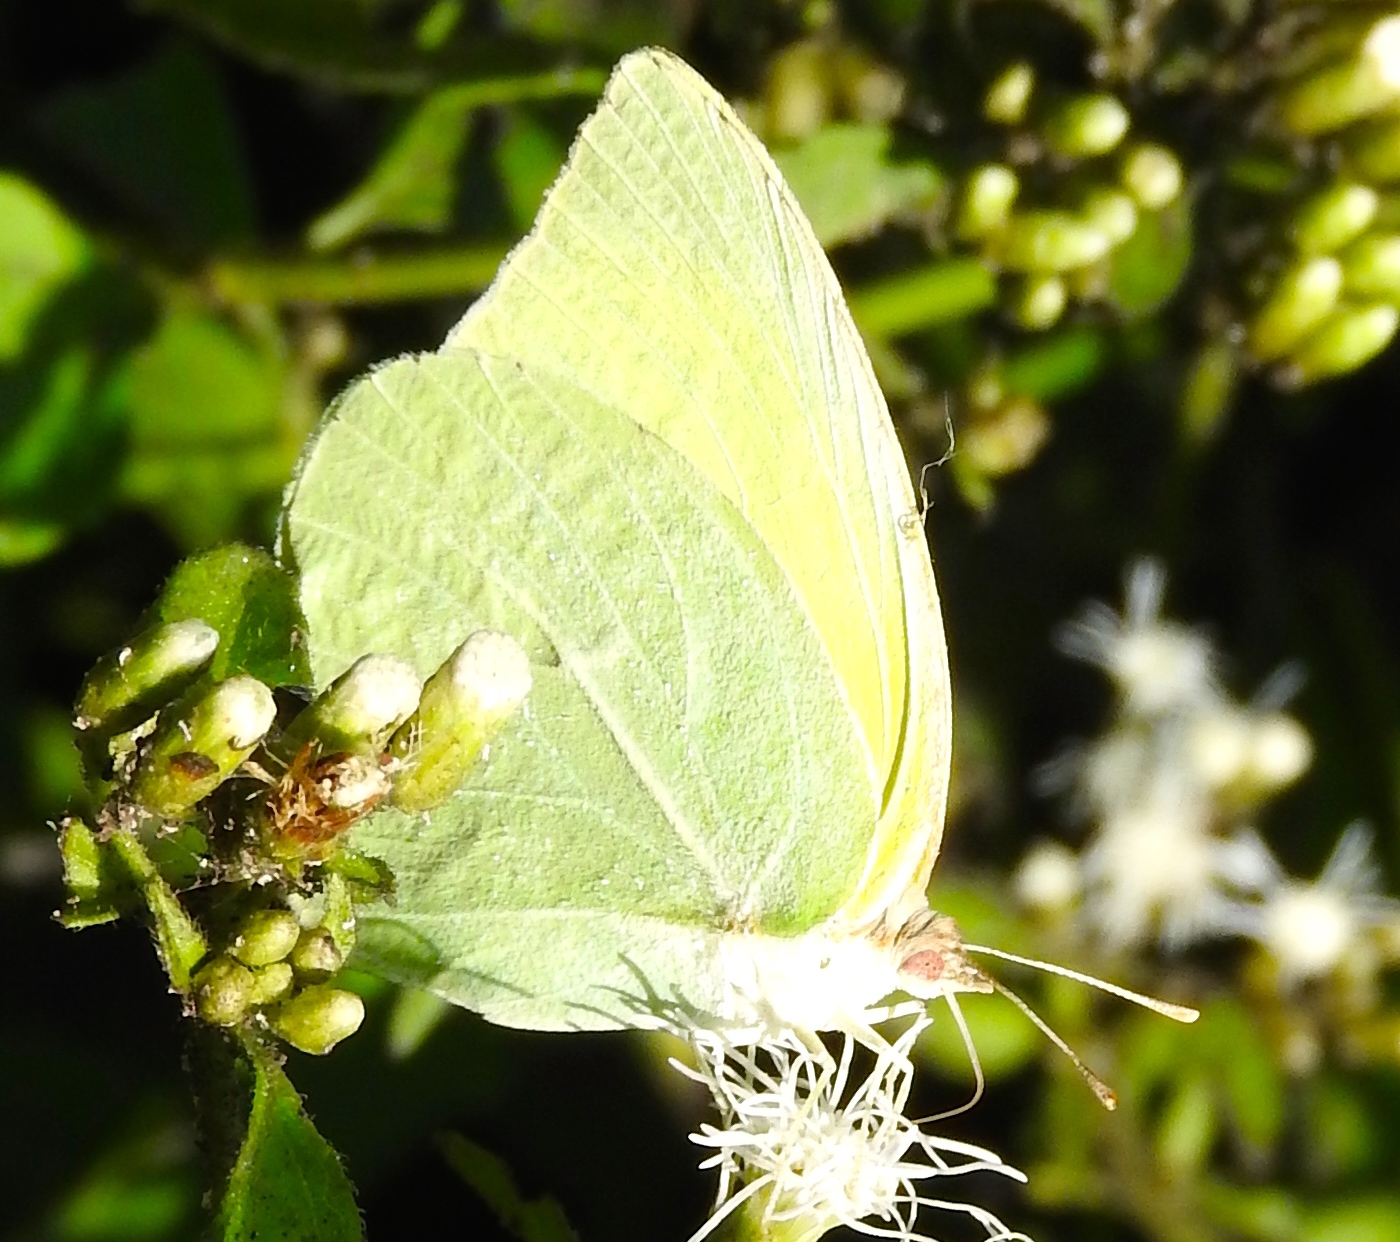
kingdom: Animalia
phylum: Arthropoda
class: Insecta
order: Lepidoptera
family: Pieridae
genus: Kricogonia
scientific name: Kricogonia lyside
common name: Guayacan sulphur,
